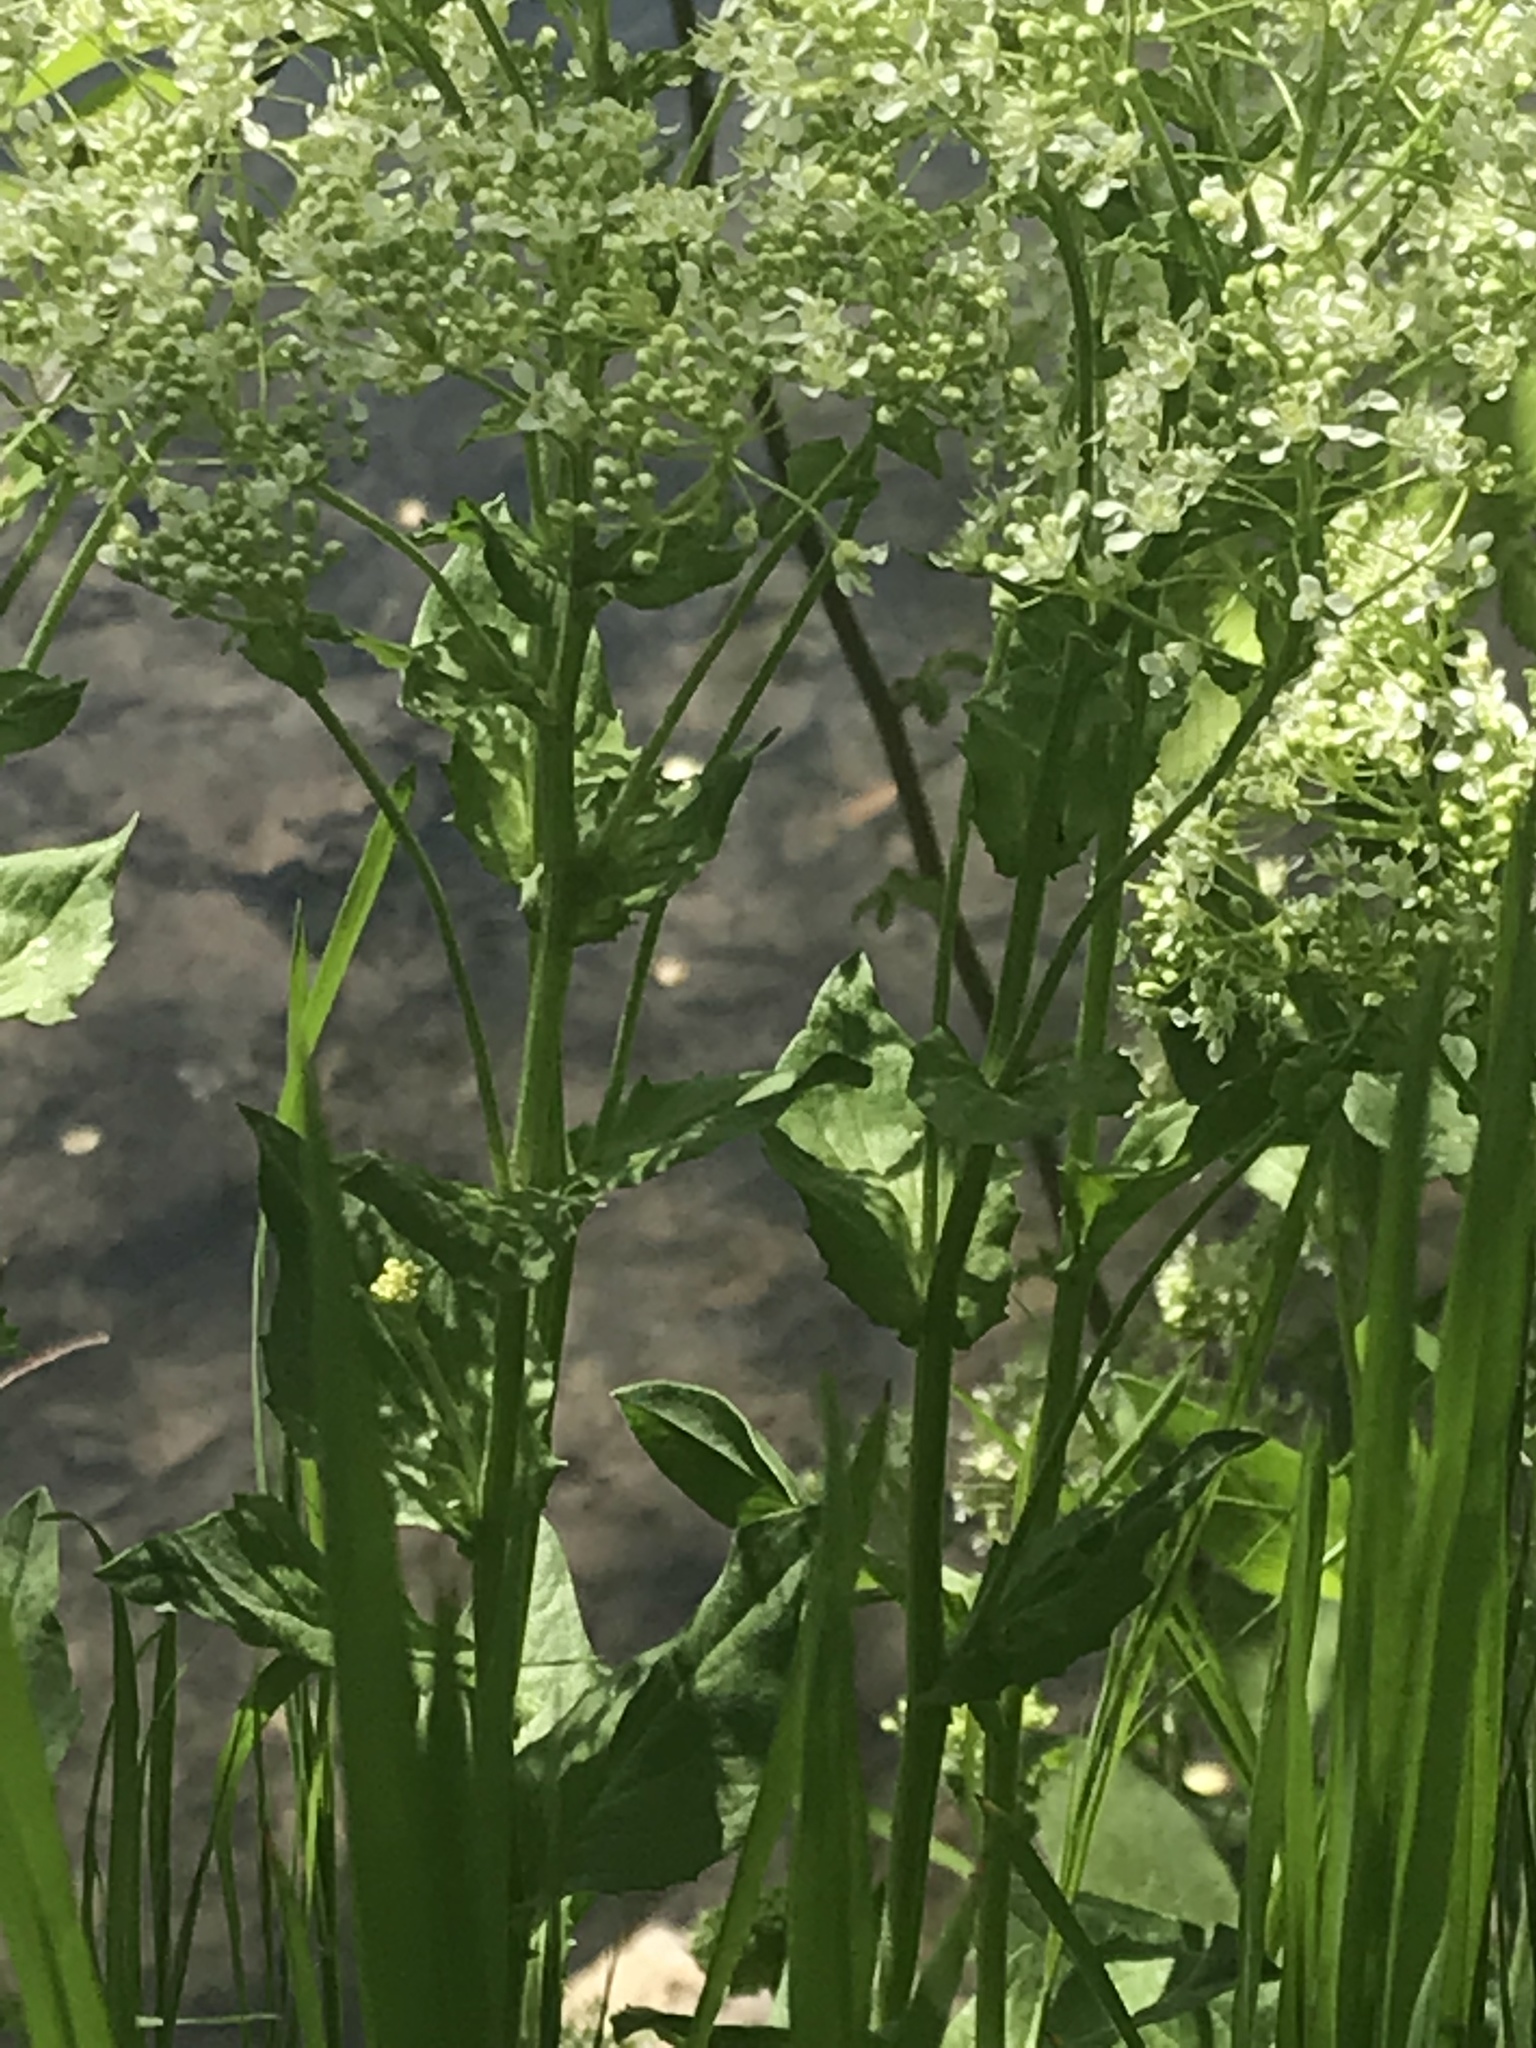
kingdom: Plantae
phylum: Tracheophyta
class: Magnoliopsida
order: Brassicales
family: Brassicaceae
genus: Lepidium
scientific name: Lepidium draba
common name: Hoary cress
